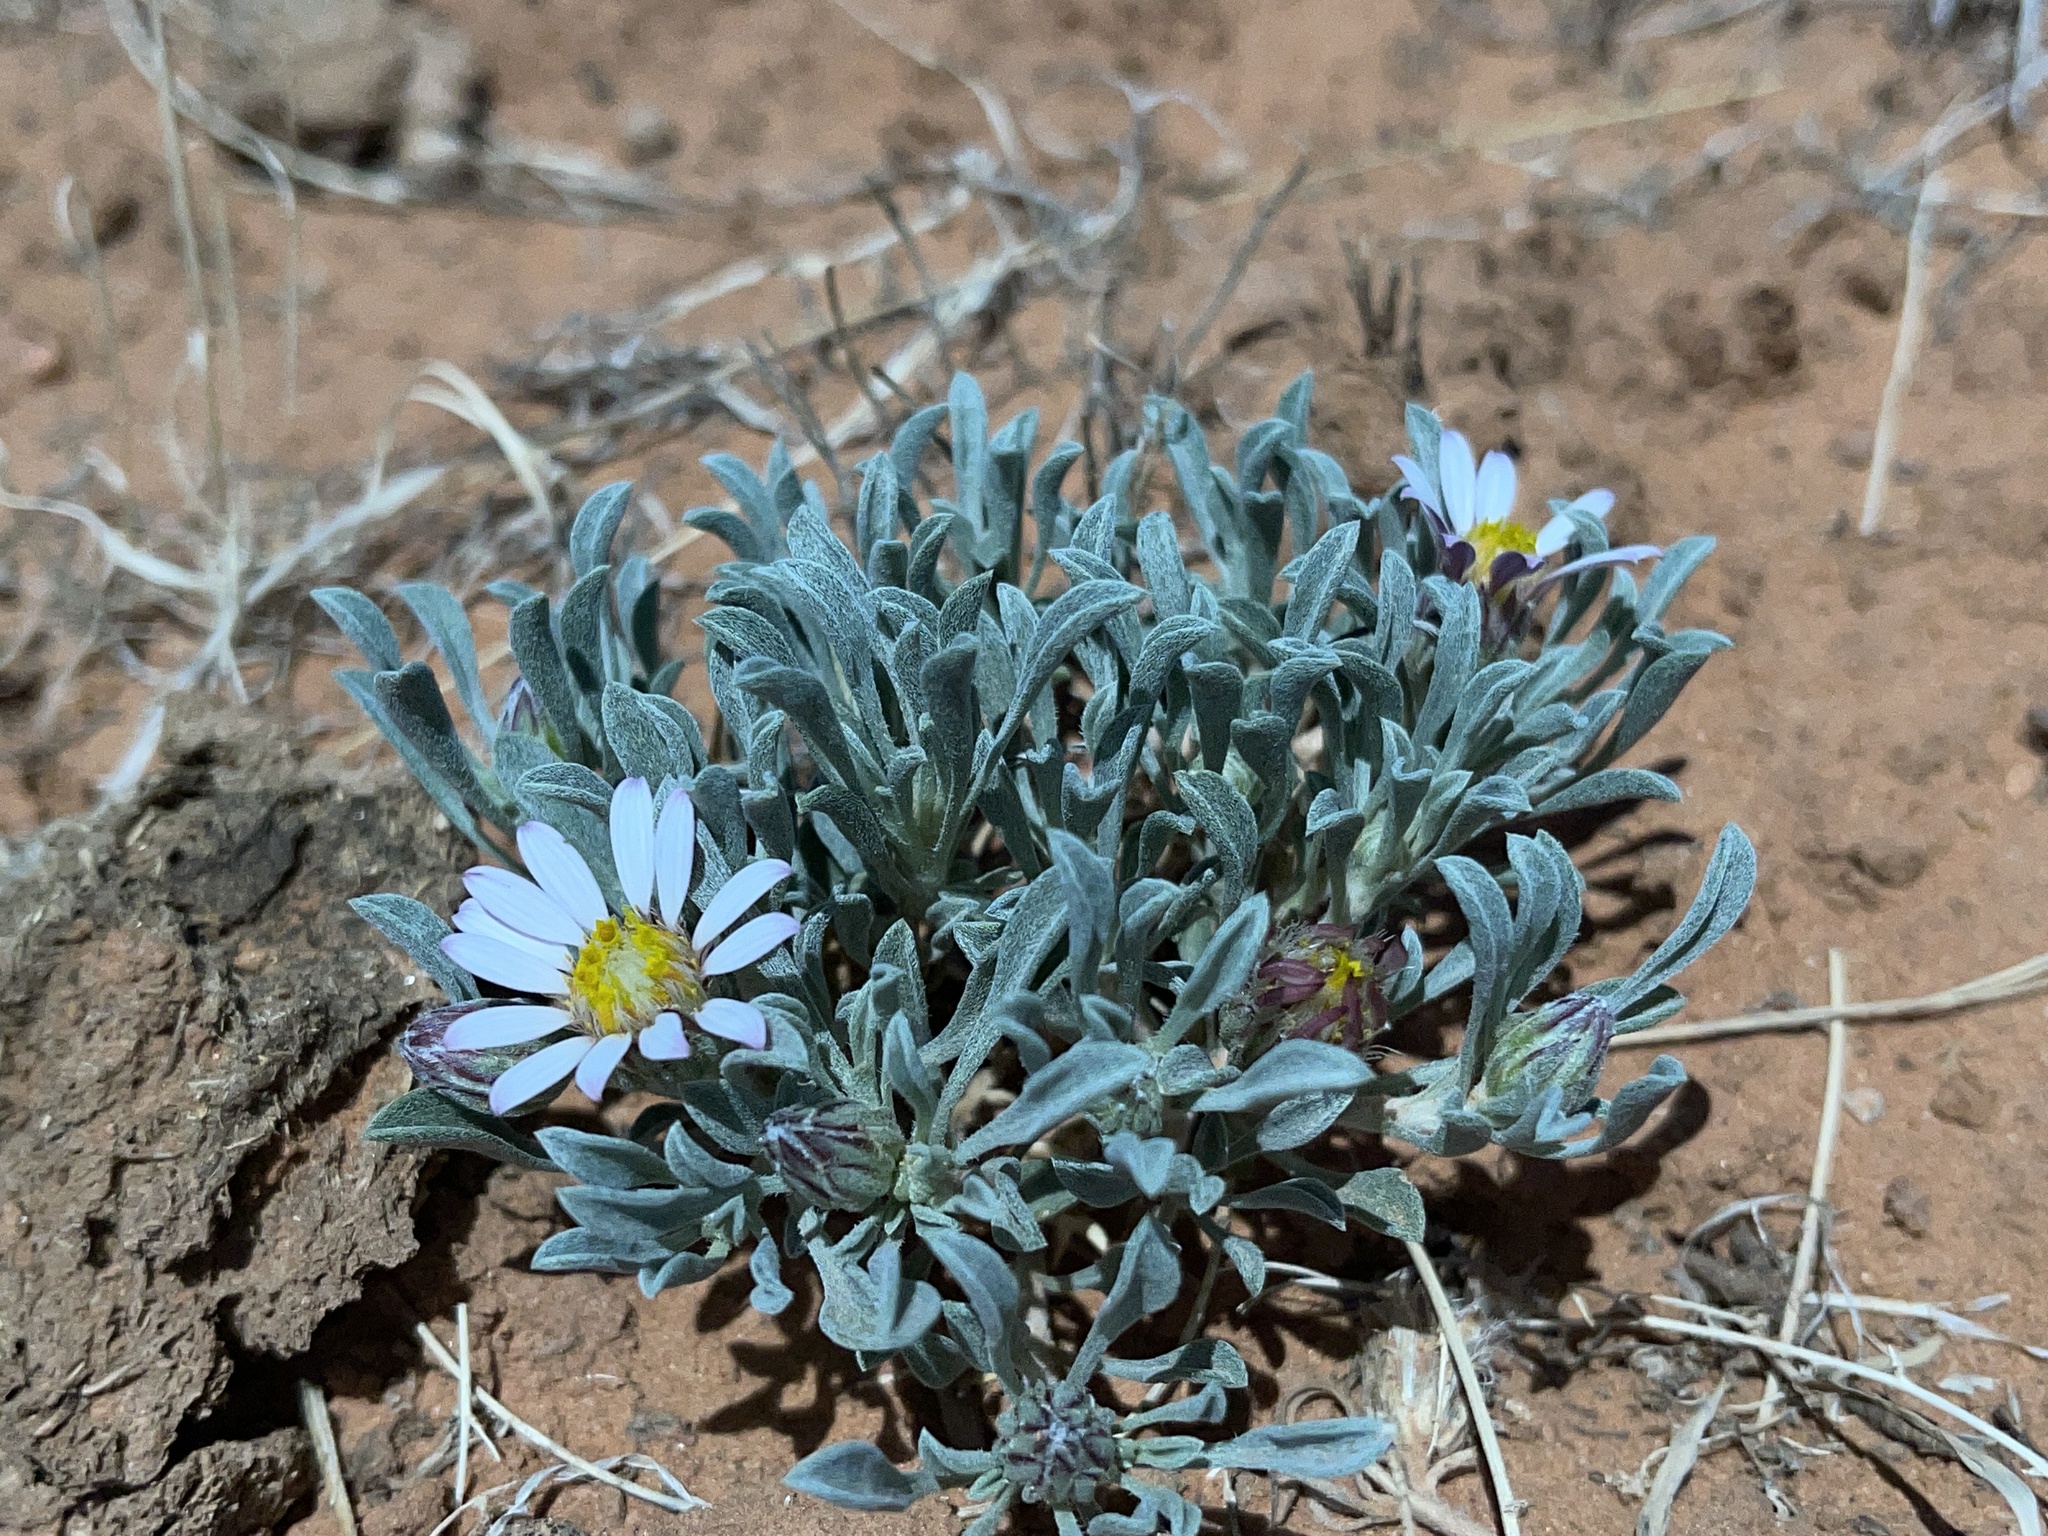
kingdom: Plantae
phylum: Tracheophyta
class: Magnoliopsida
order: Asterales
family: Asteraceae
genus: Townsendia
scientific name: Townsendia incana
